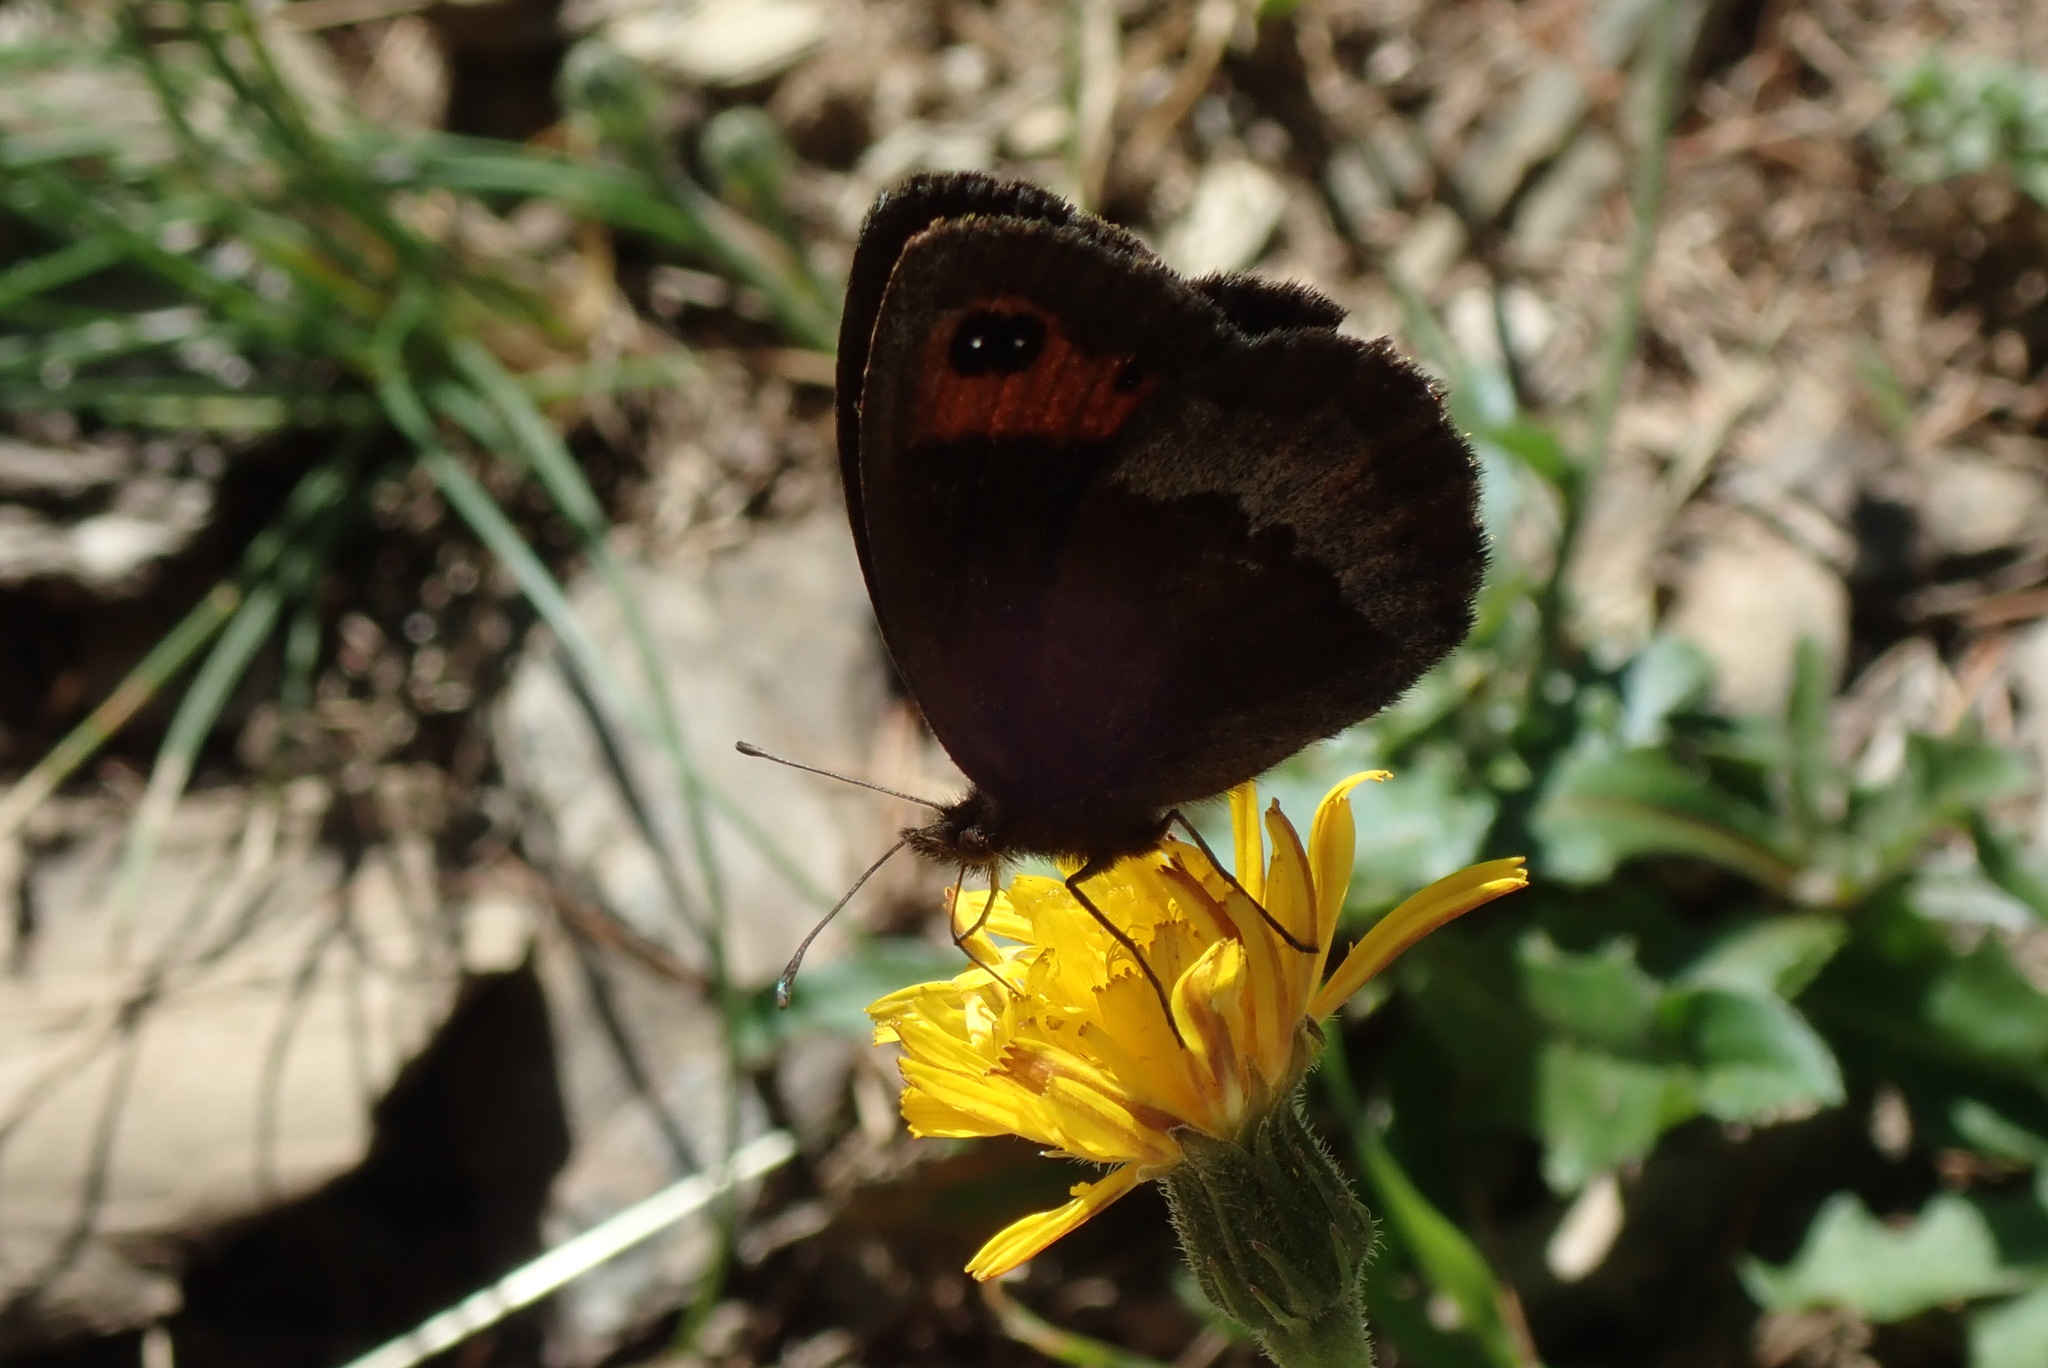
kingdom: Animalia
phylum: Arthropoda
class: Insecta
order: Lepidoptera
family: Nymphalidae
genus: Erebia
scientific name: Erebia neoridas
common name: Autumn ringlet
